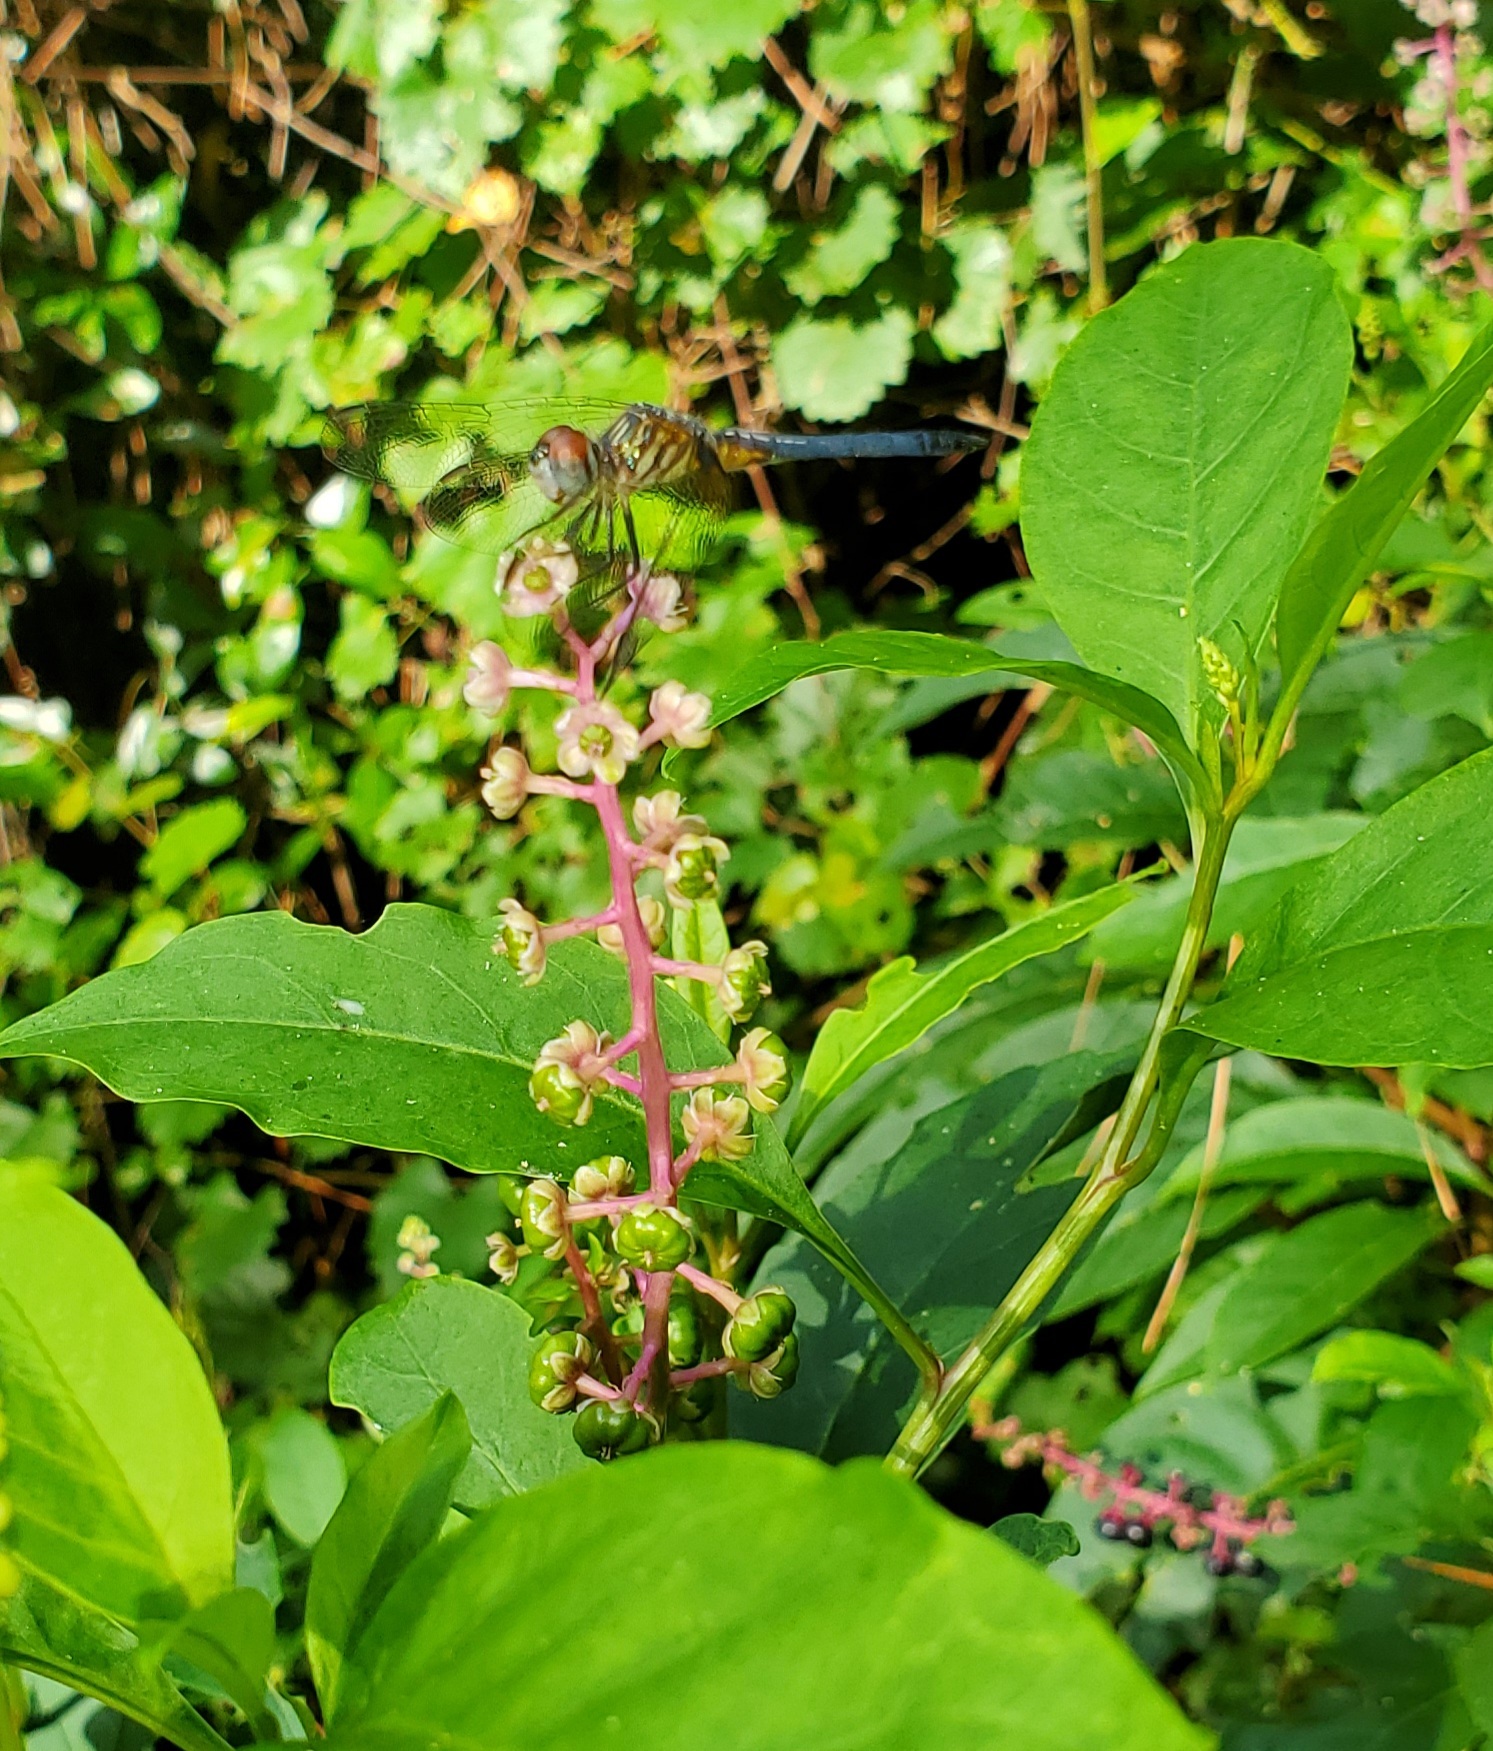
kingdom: Animalia
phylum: Arthropoda
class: Insecta
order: Odonata
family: Libellulidae
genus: Pachydiplax
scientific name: Pachydiplax longipennis
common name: Blue dasher
